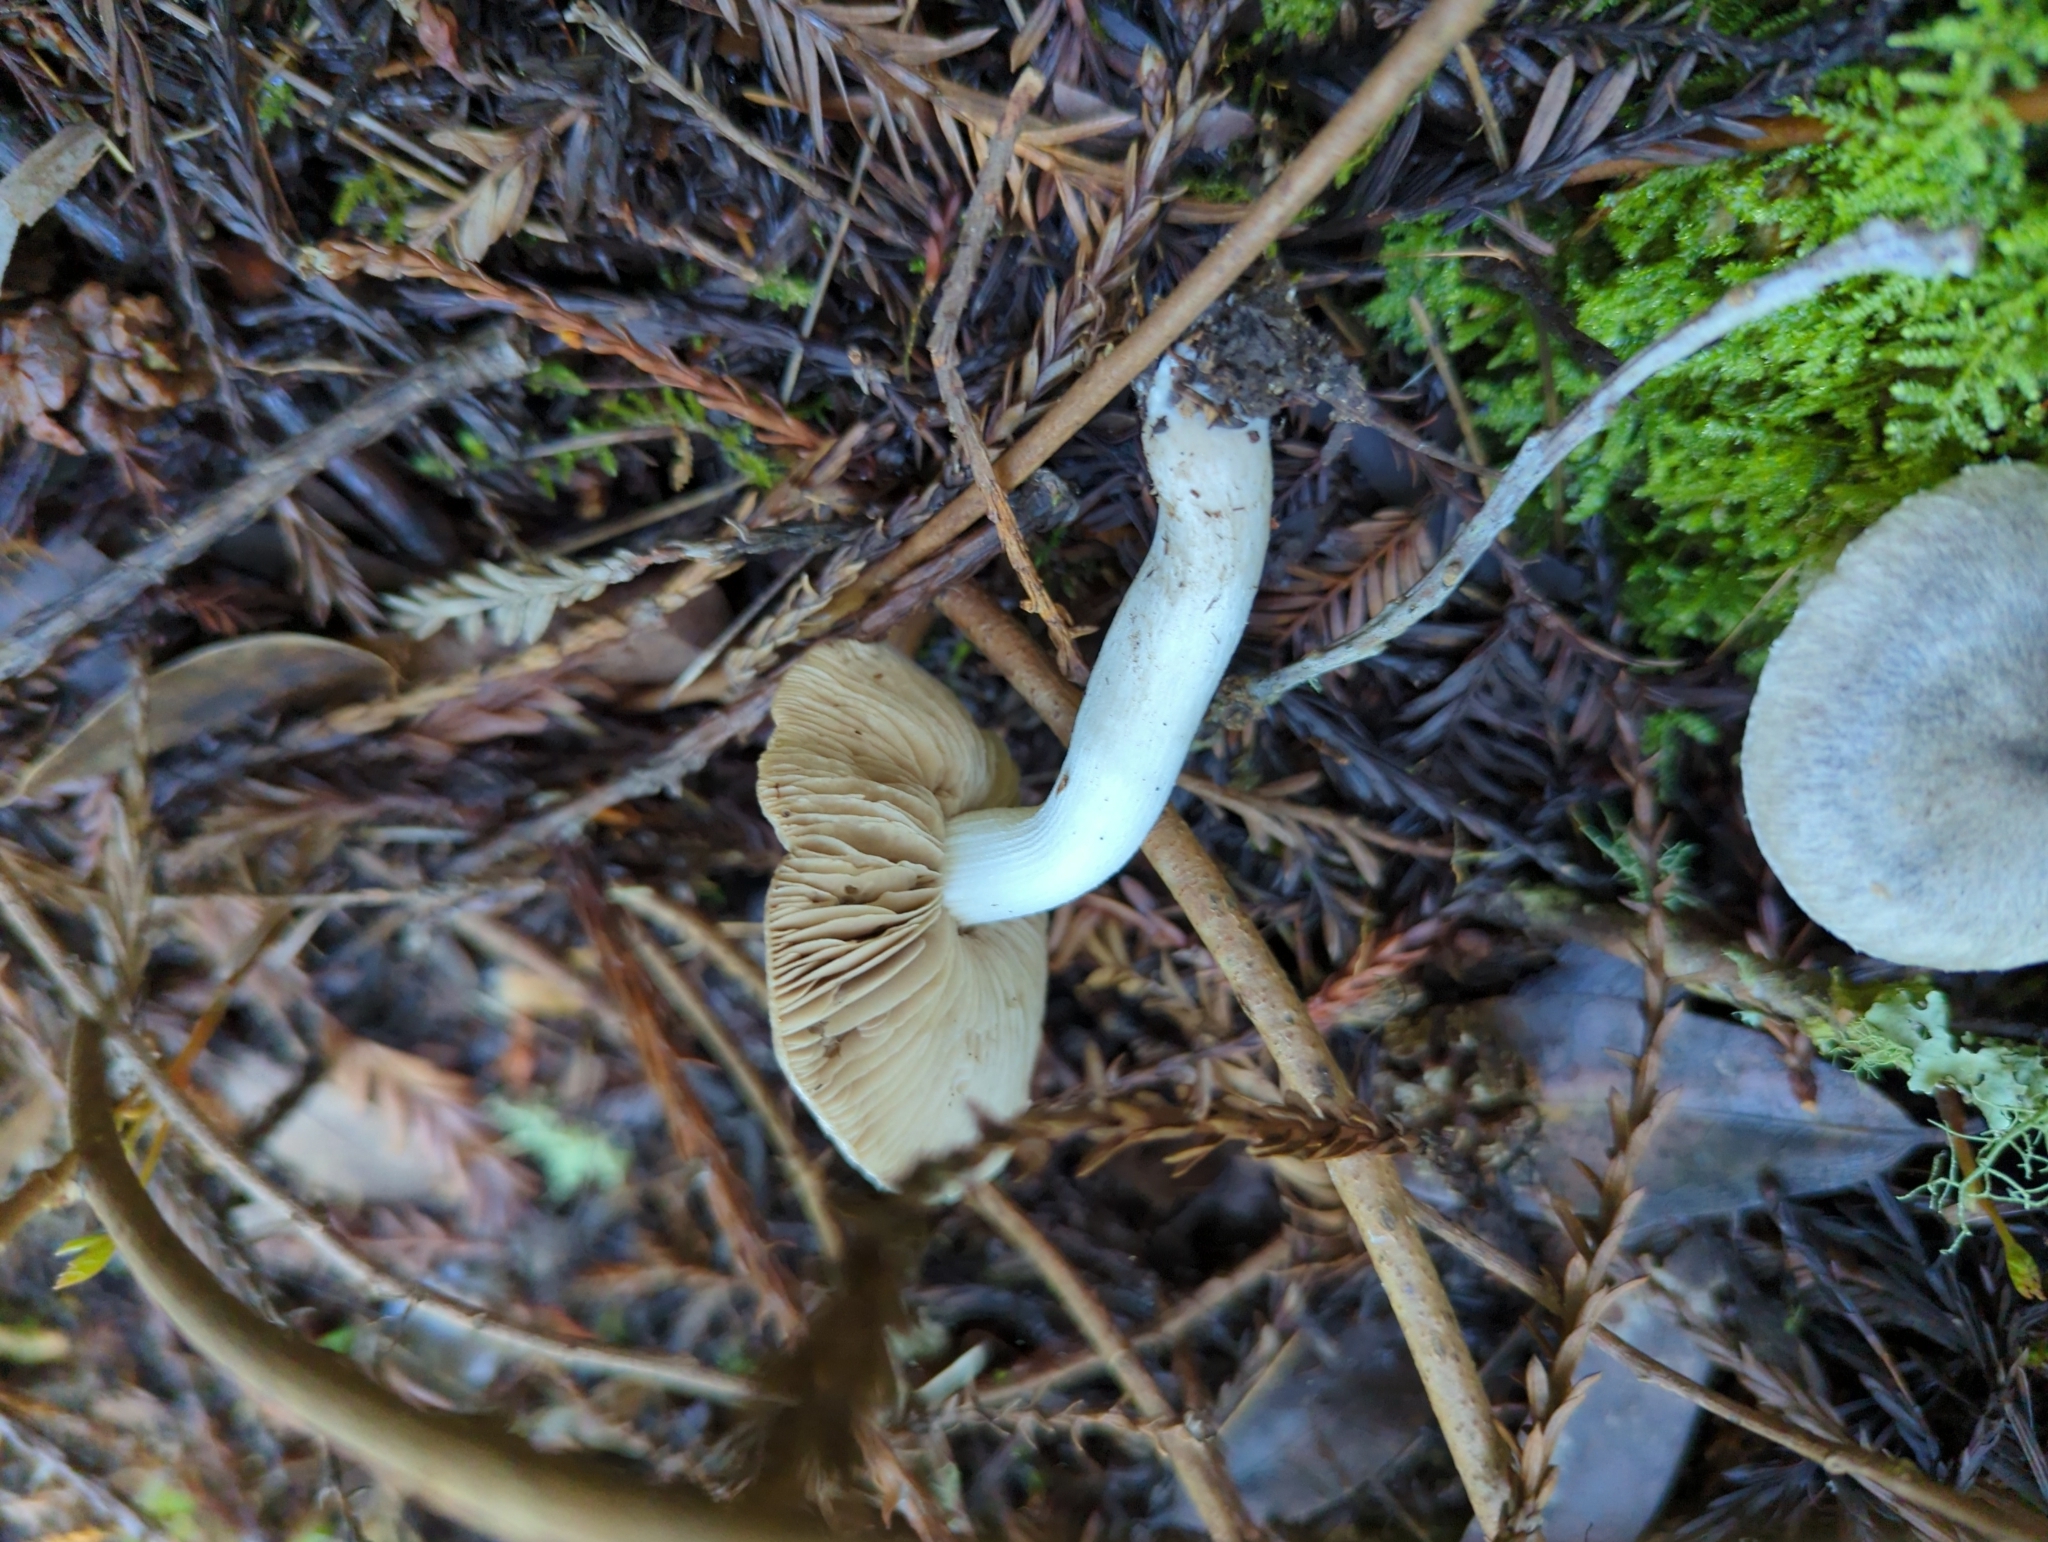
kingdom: Fungi
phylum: Basidiomycota
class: Agaricomycetes
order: Agaricales
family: Psathyrellaceae
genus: Psathyrella
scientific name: Psathyrella uliginicola
